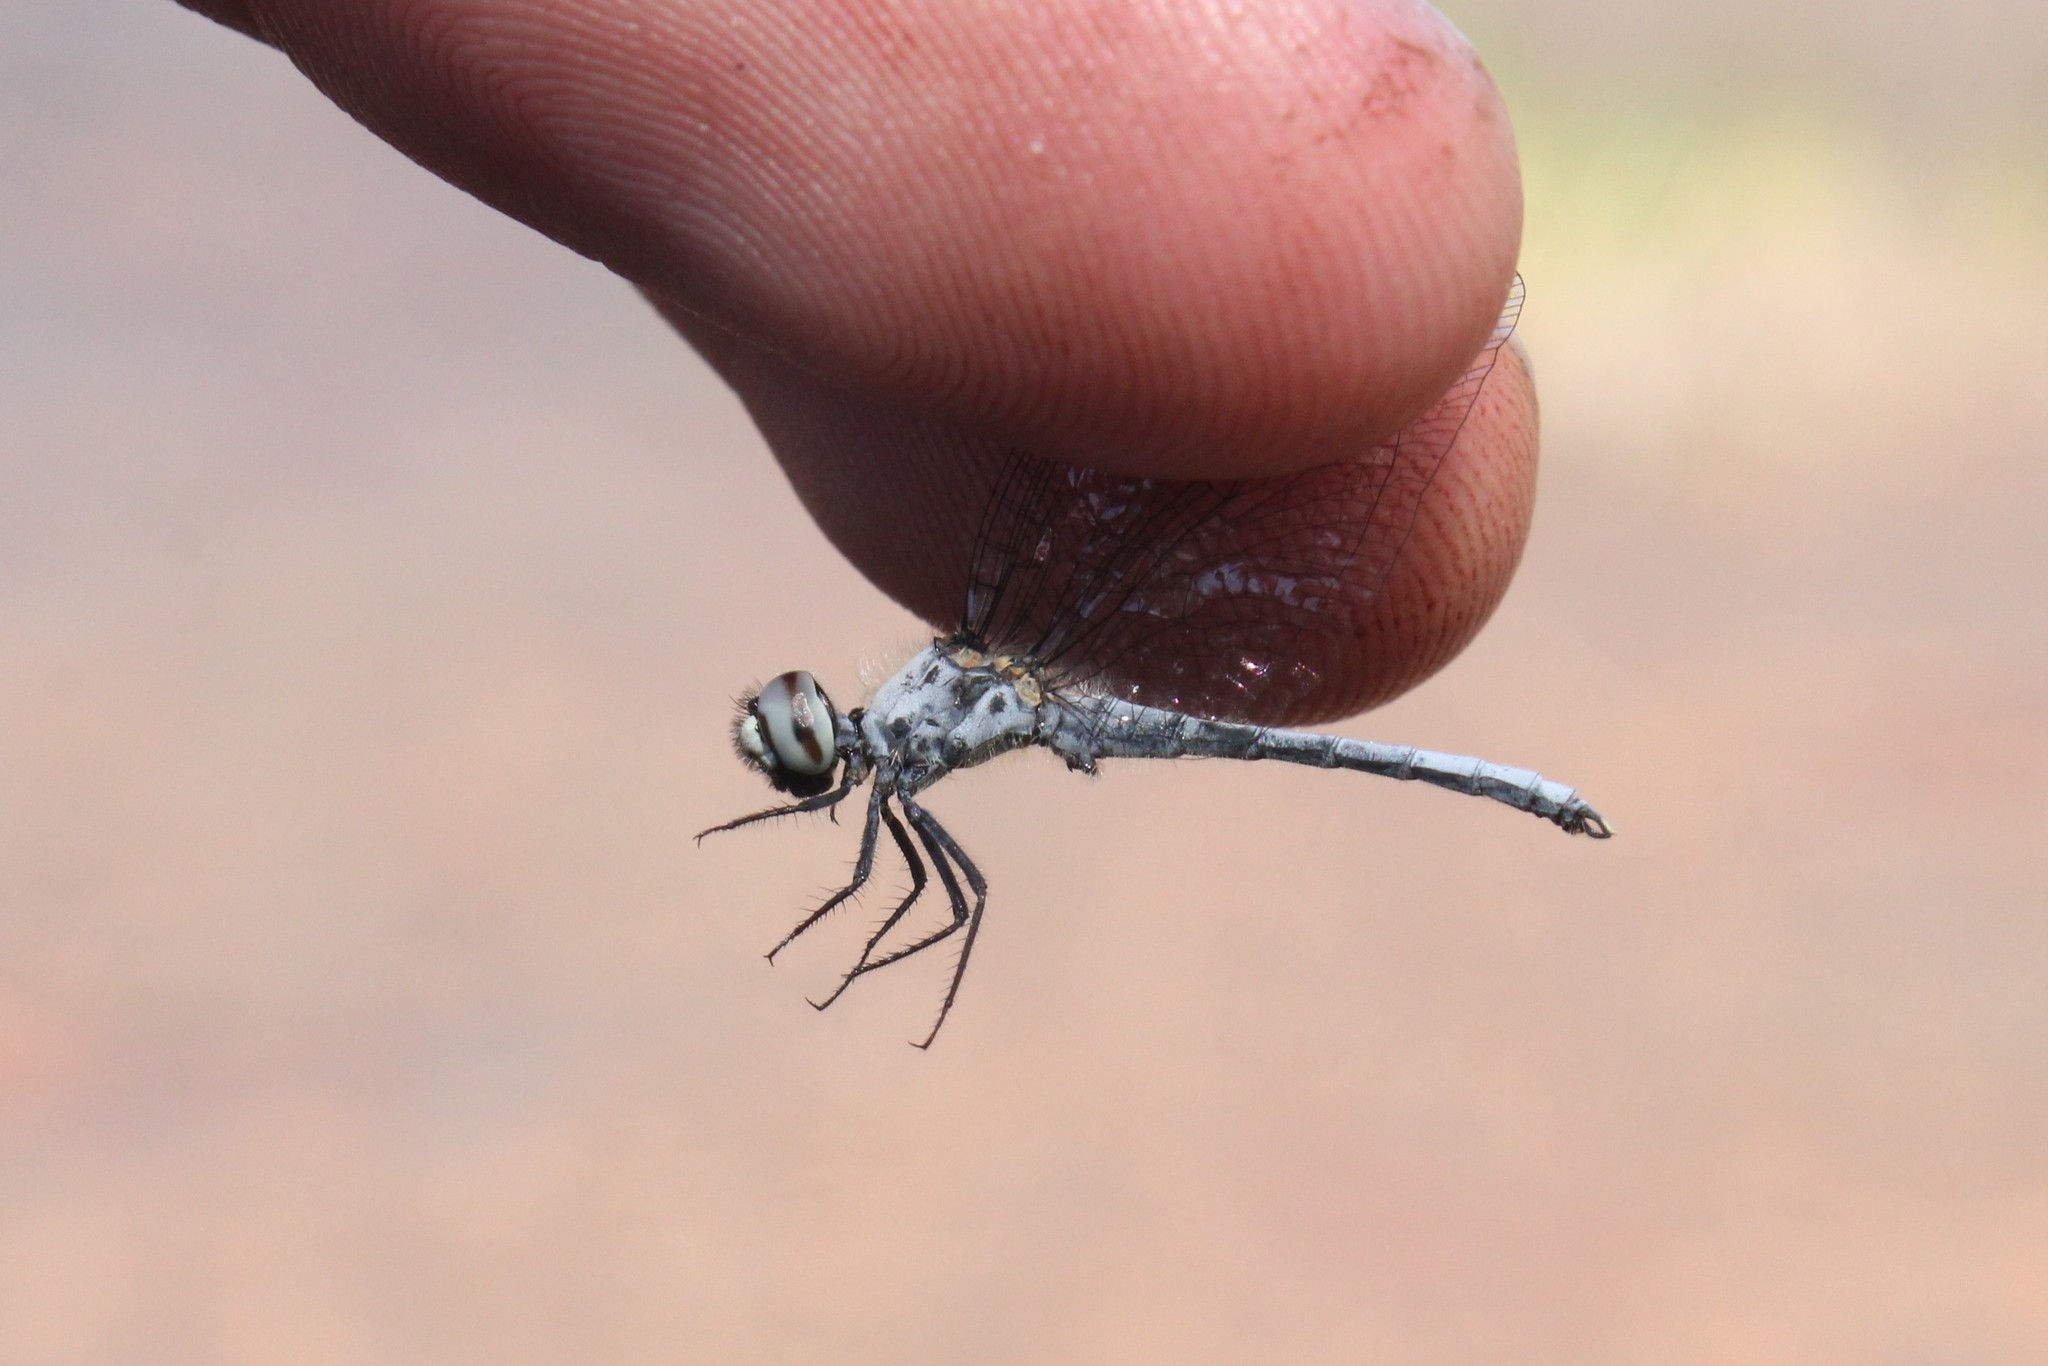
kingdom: Animalia
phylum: Arthropoda
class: Insecta
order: Odonata
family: Libellulidae
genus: Nannothemis
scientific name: Nannothemis bella
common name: Elfin skimmer
